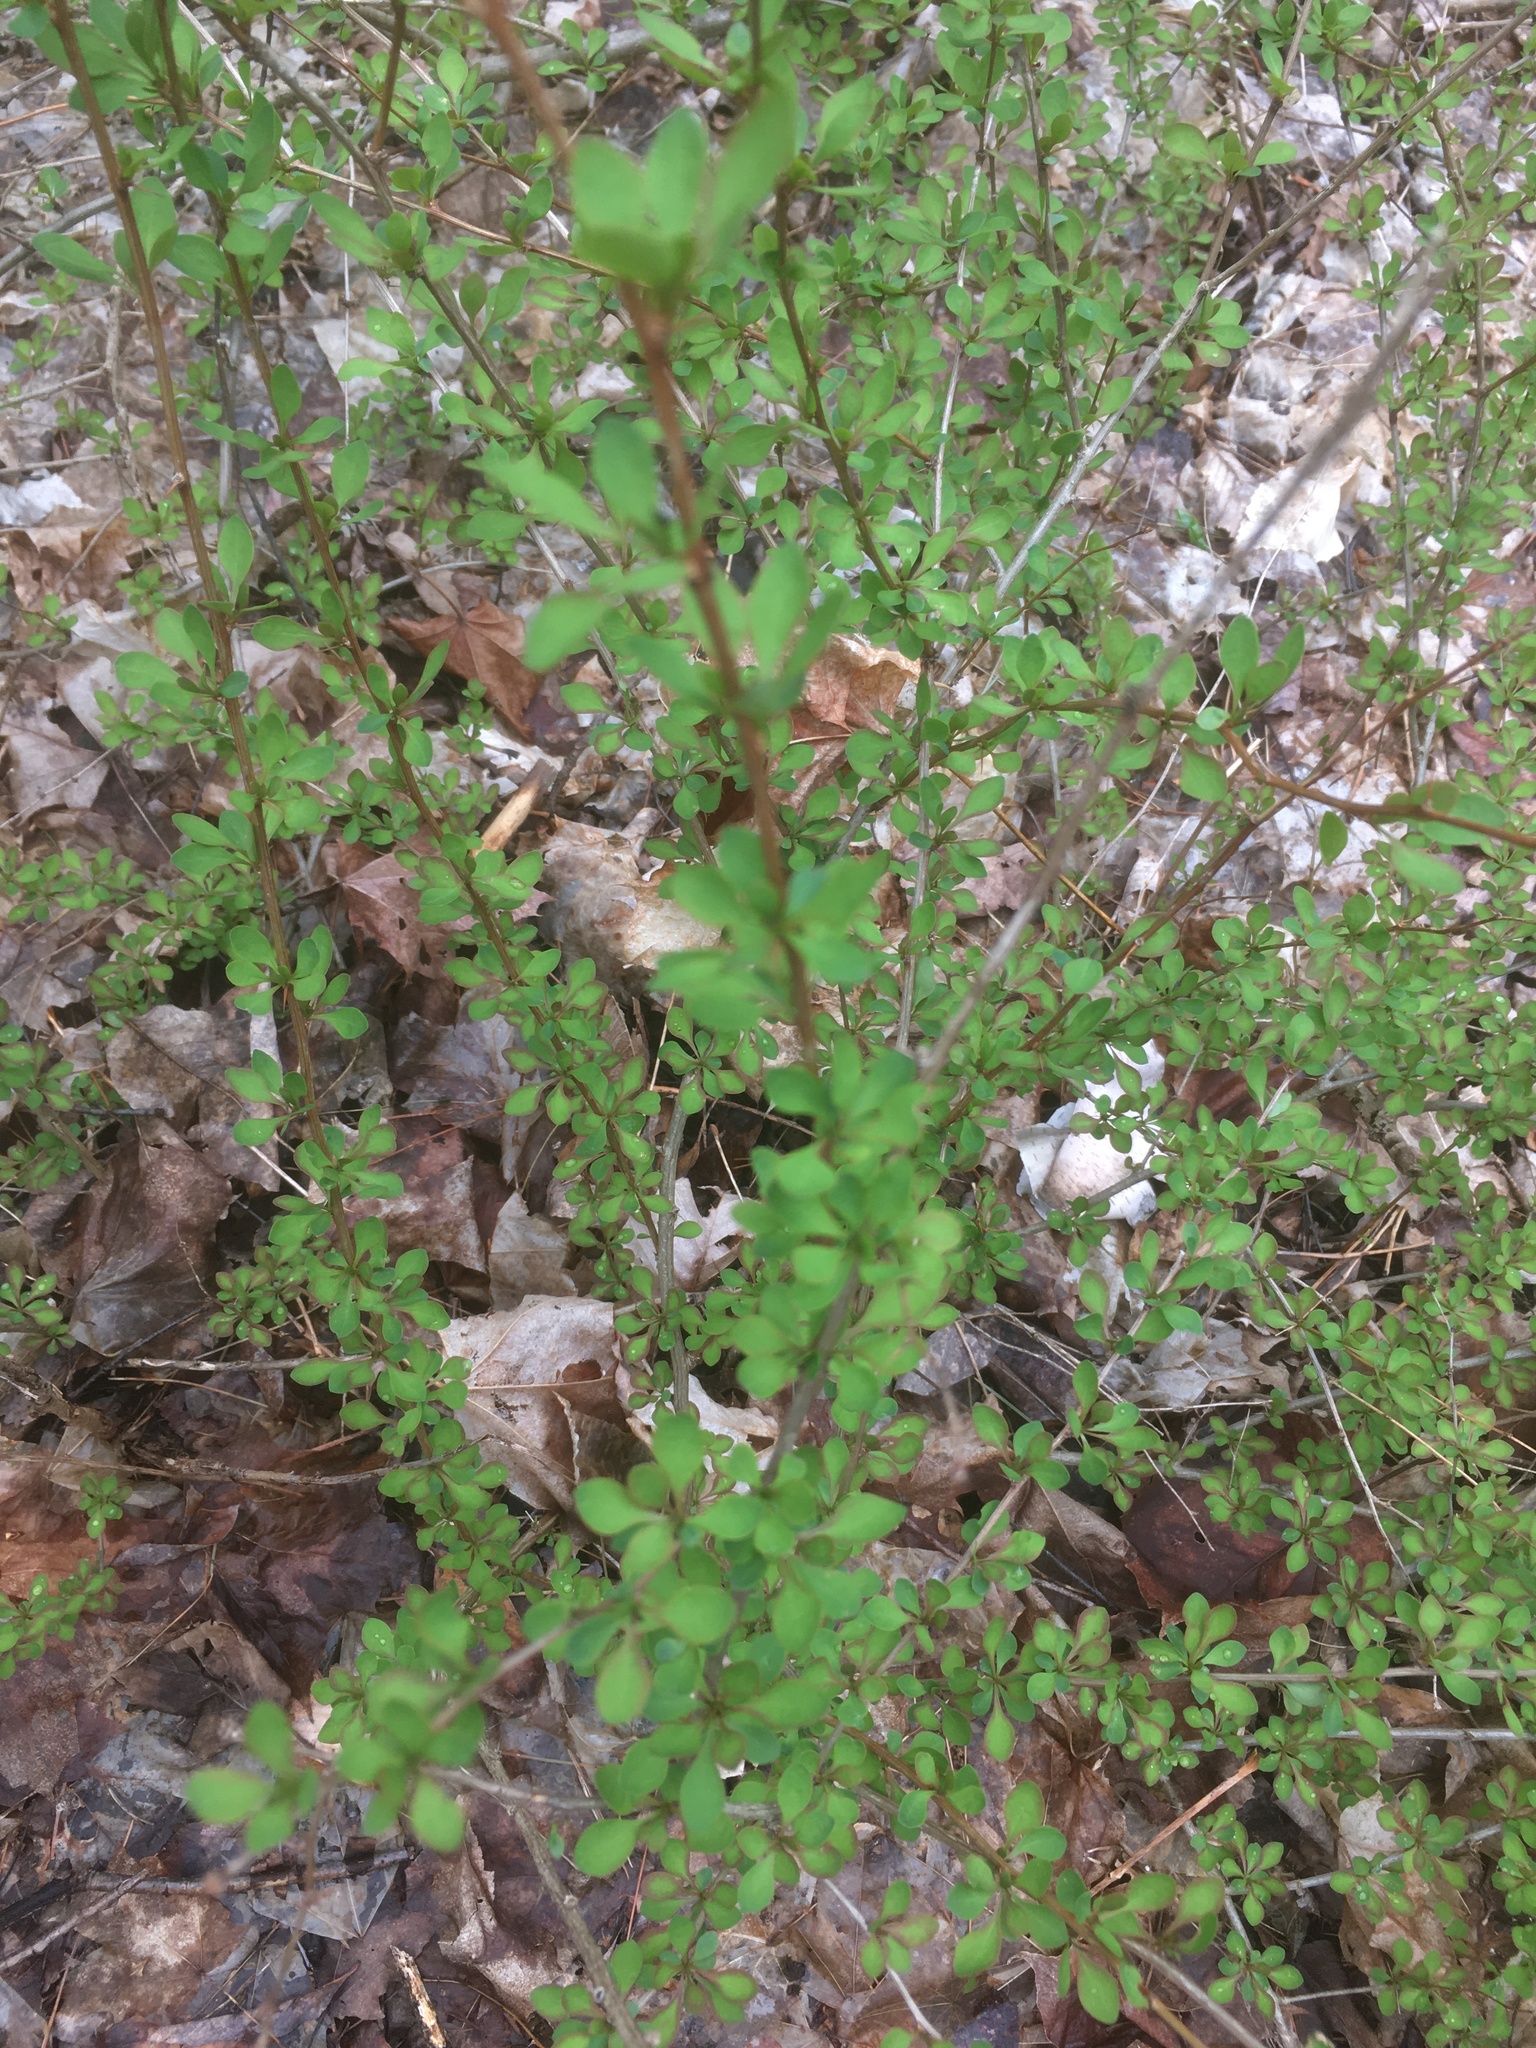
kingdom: Plantae
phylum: Tracheophyta
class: Magnoliopsida
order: Ranunculales
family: Berberidaceae
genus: Berberis
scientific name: Berberis thunbergii
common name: Japanese barberry
